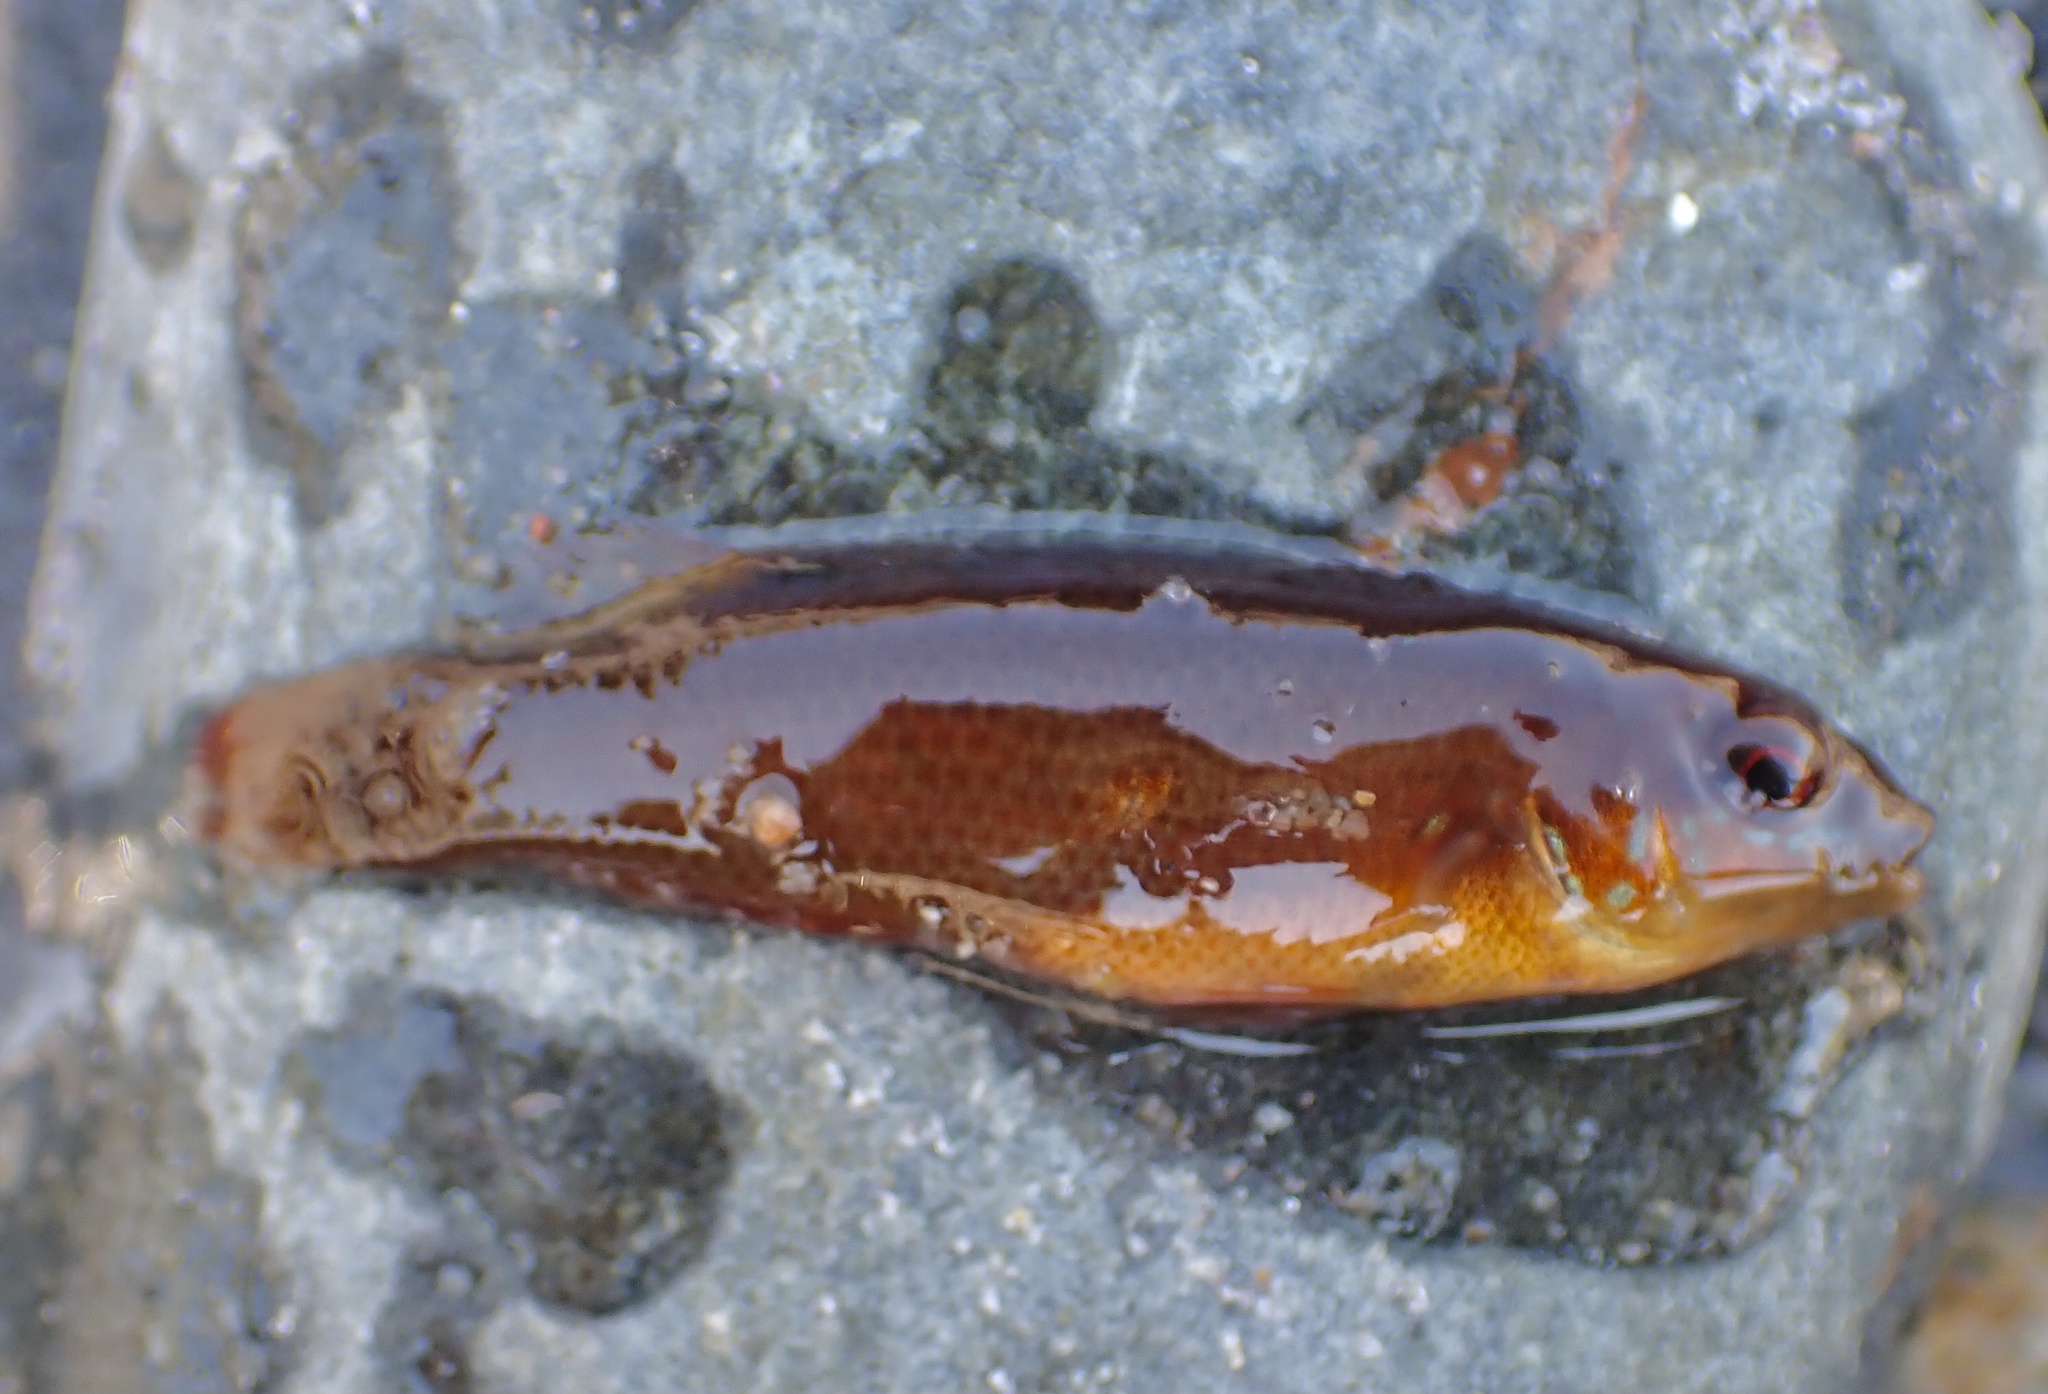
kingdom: Animalia
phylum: Chordata
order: Perciformes
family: Labridae
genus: Tautogolabrus
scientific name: Tautogolabrus adspersus
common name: Cunner
